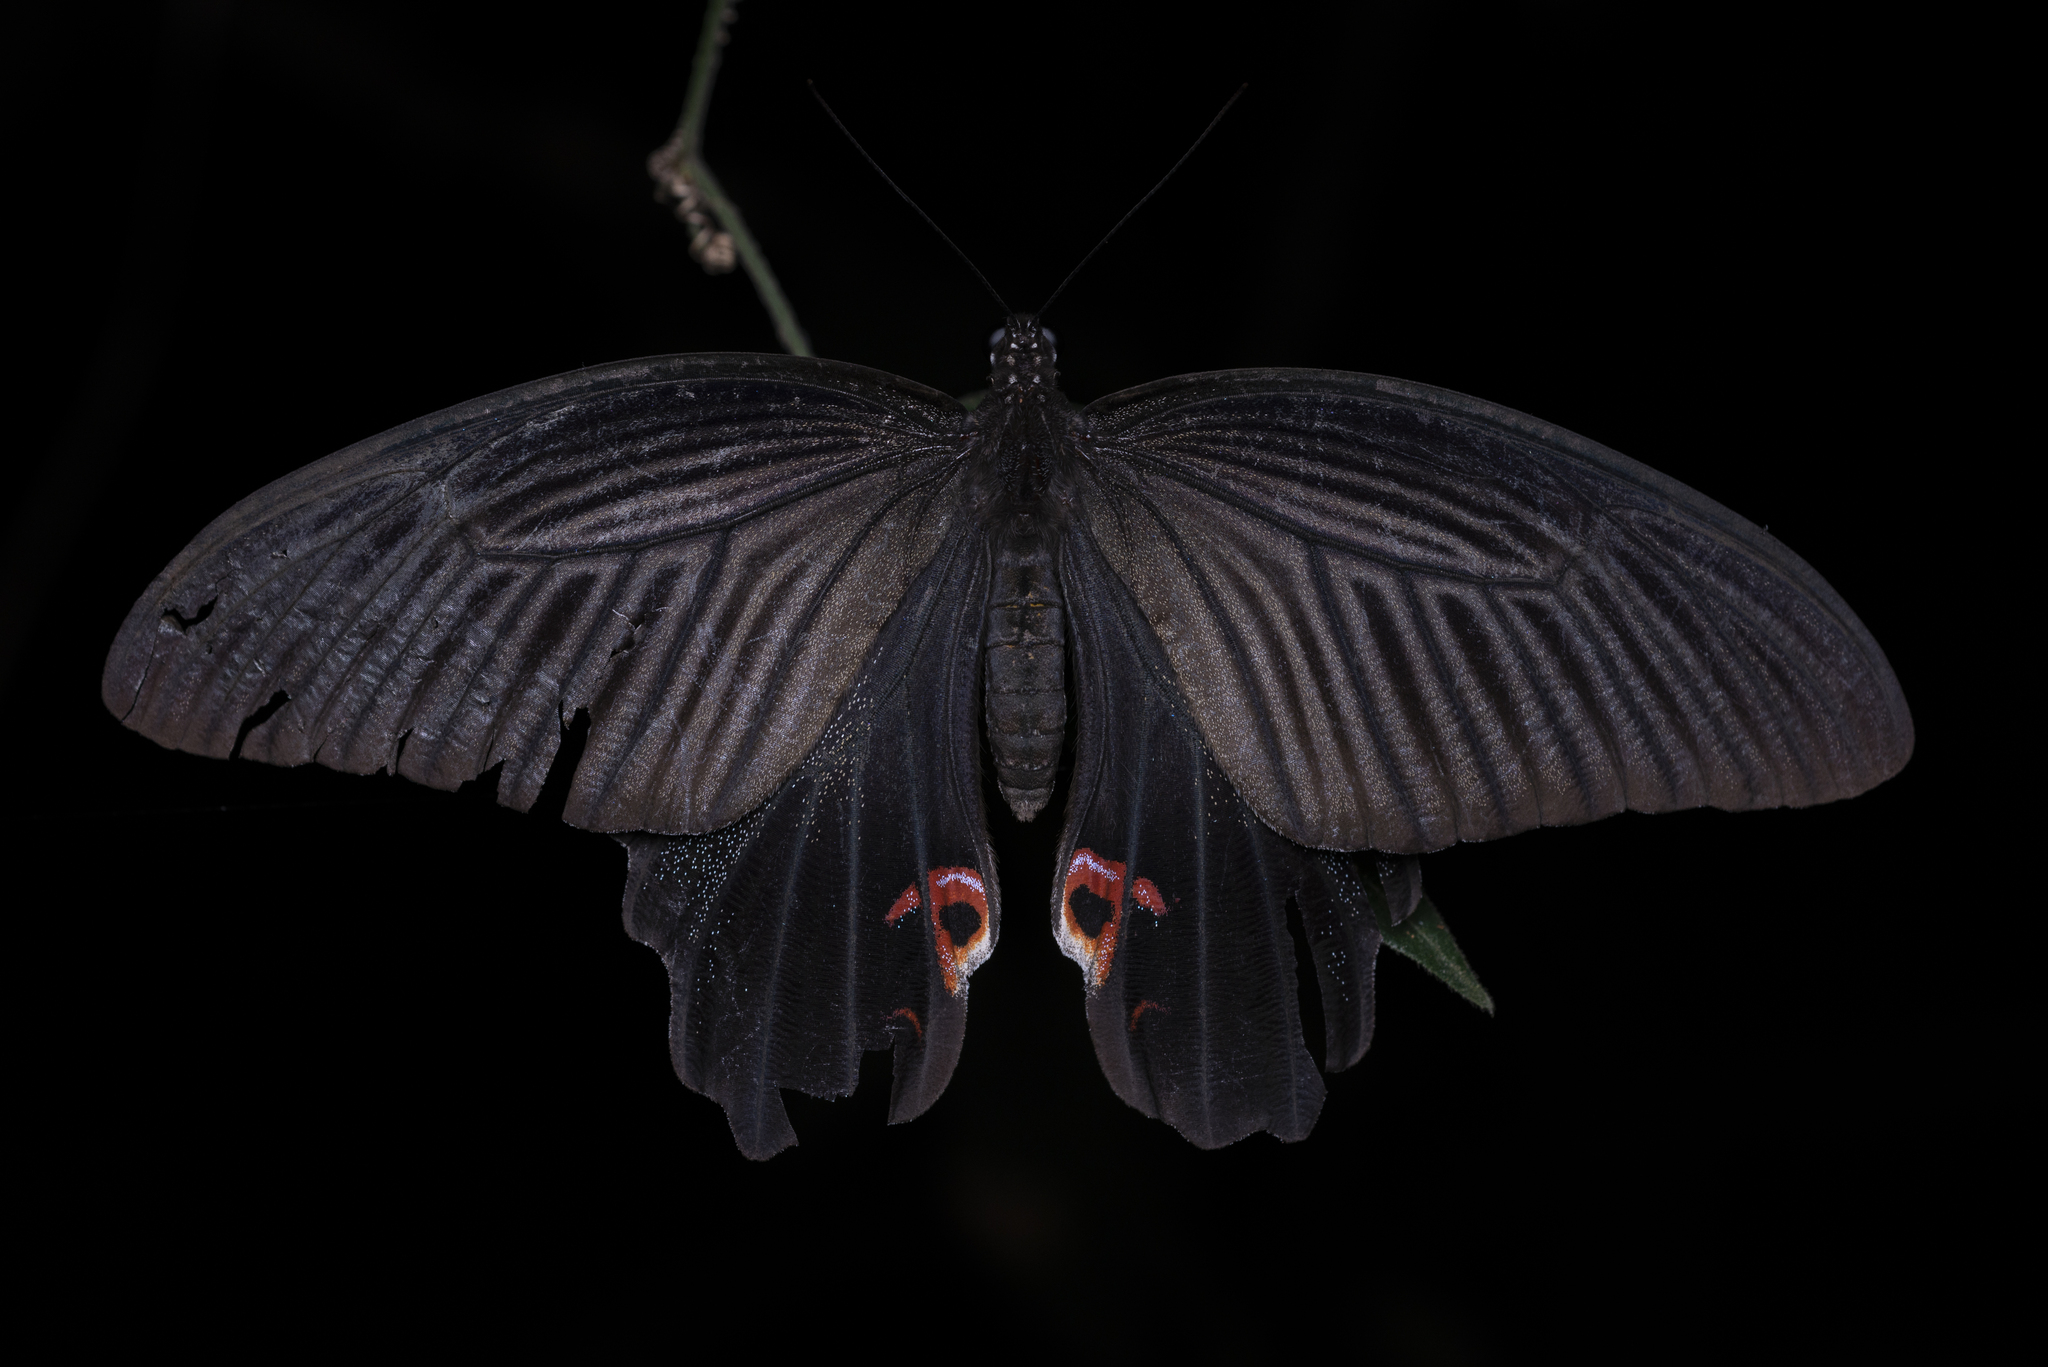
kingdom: Animalia
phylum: Arthropoda
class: Insecta
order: Lepidoptera
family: Papilionidae
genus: Papilio
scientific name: Papilio protenor
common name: Spangle
